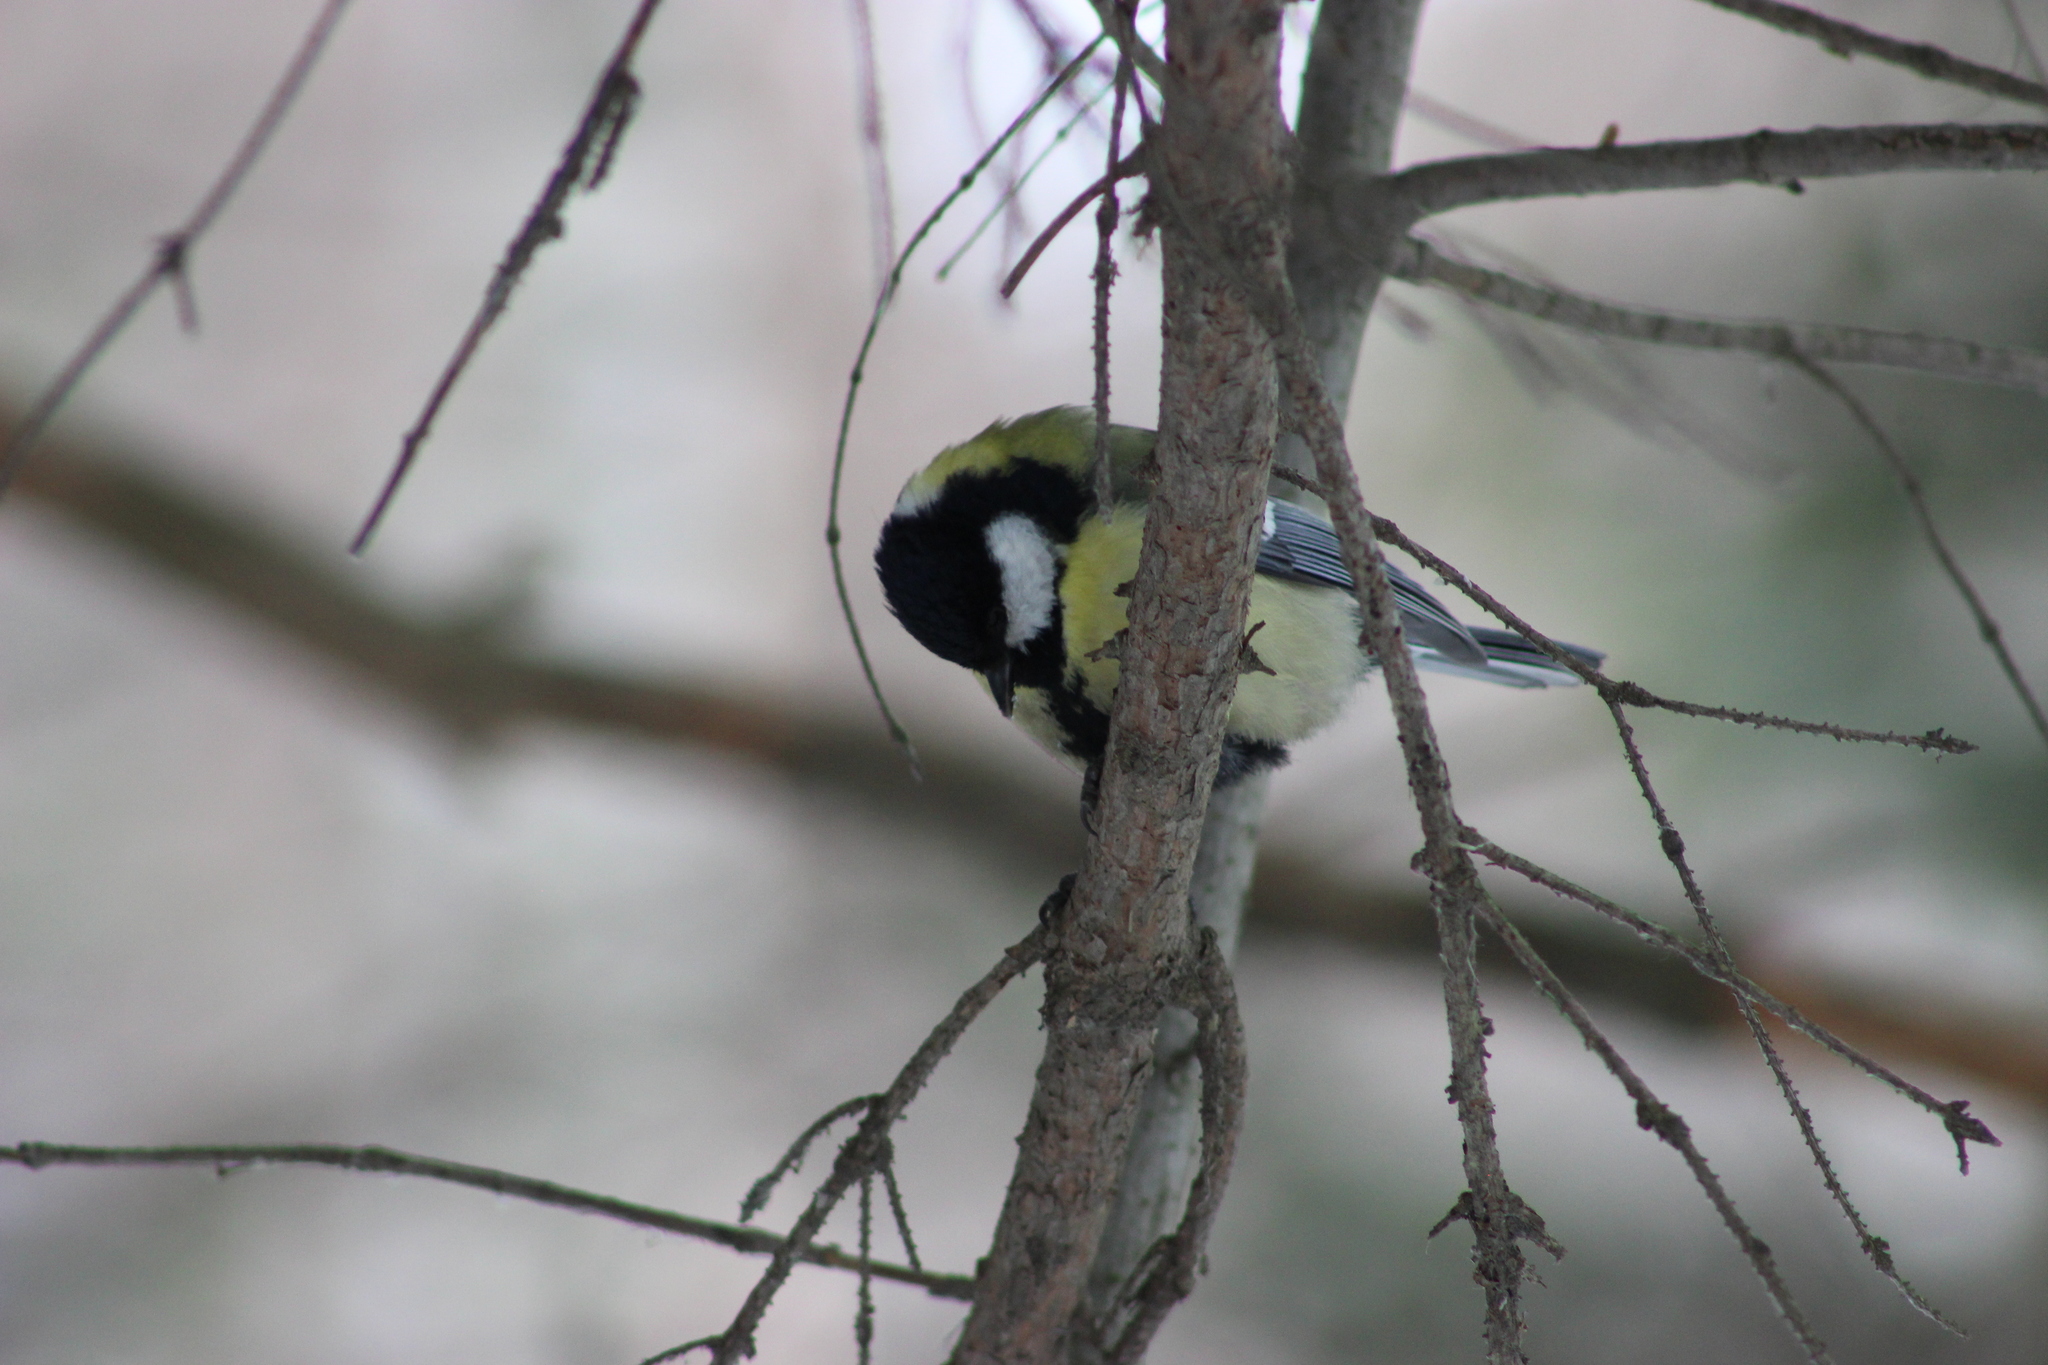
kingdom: Animalia
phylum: Chordata
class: Aves
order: Passeriformes
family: Paridae
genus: Parus
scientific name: Parus major
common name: Great tit
